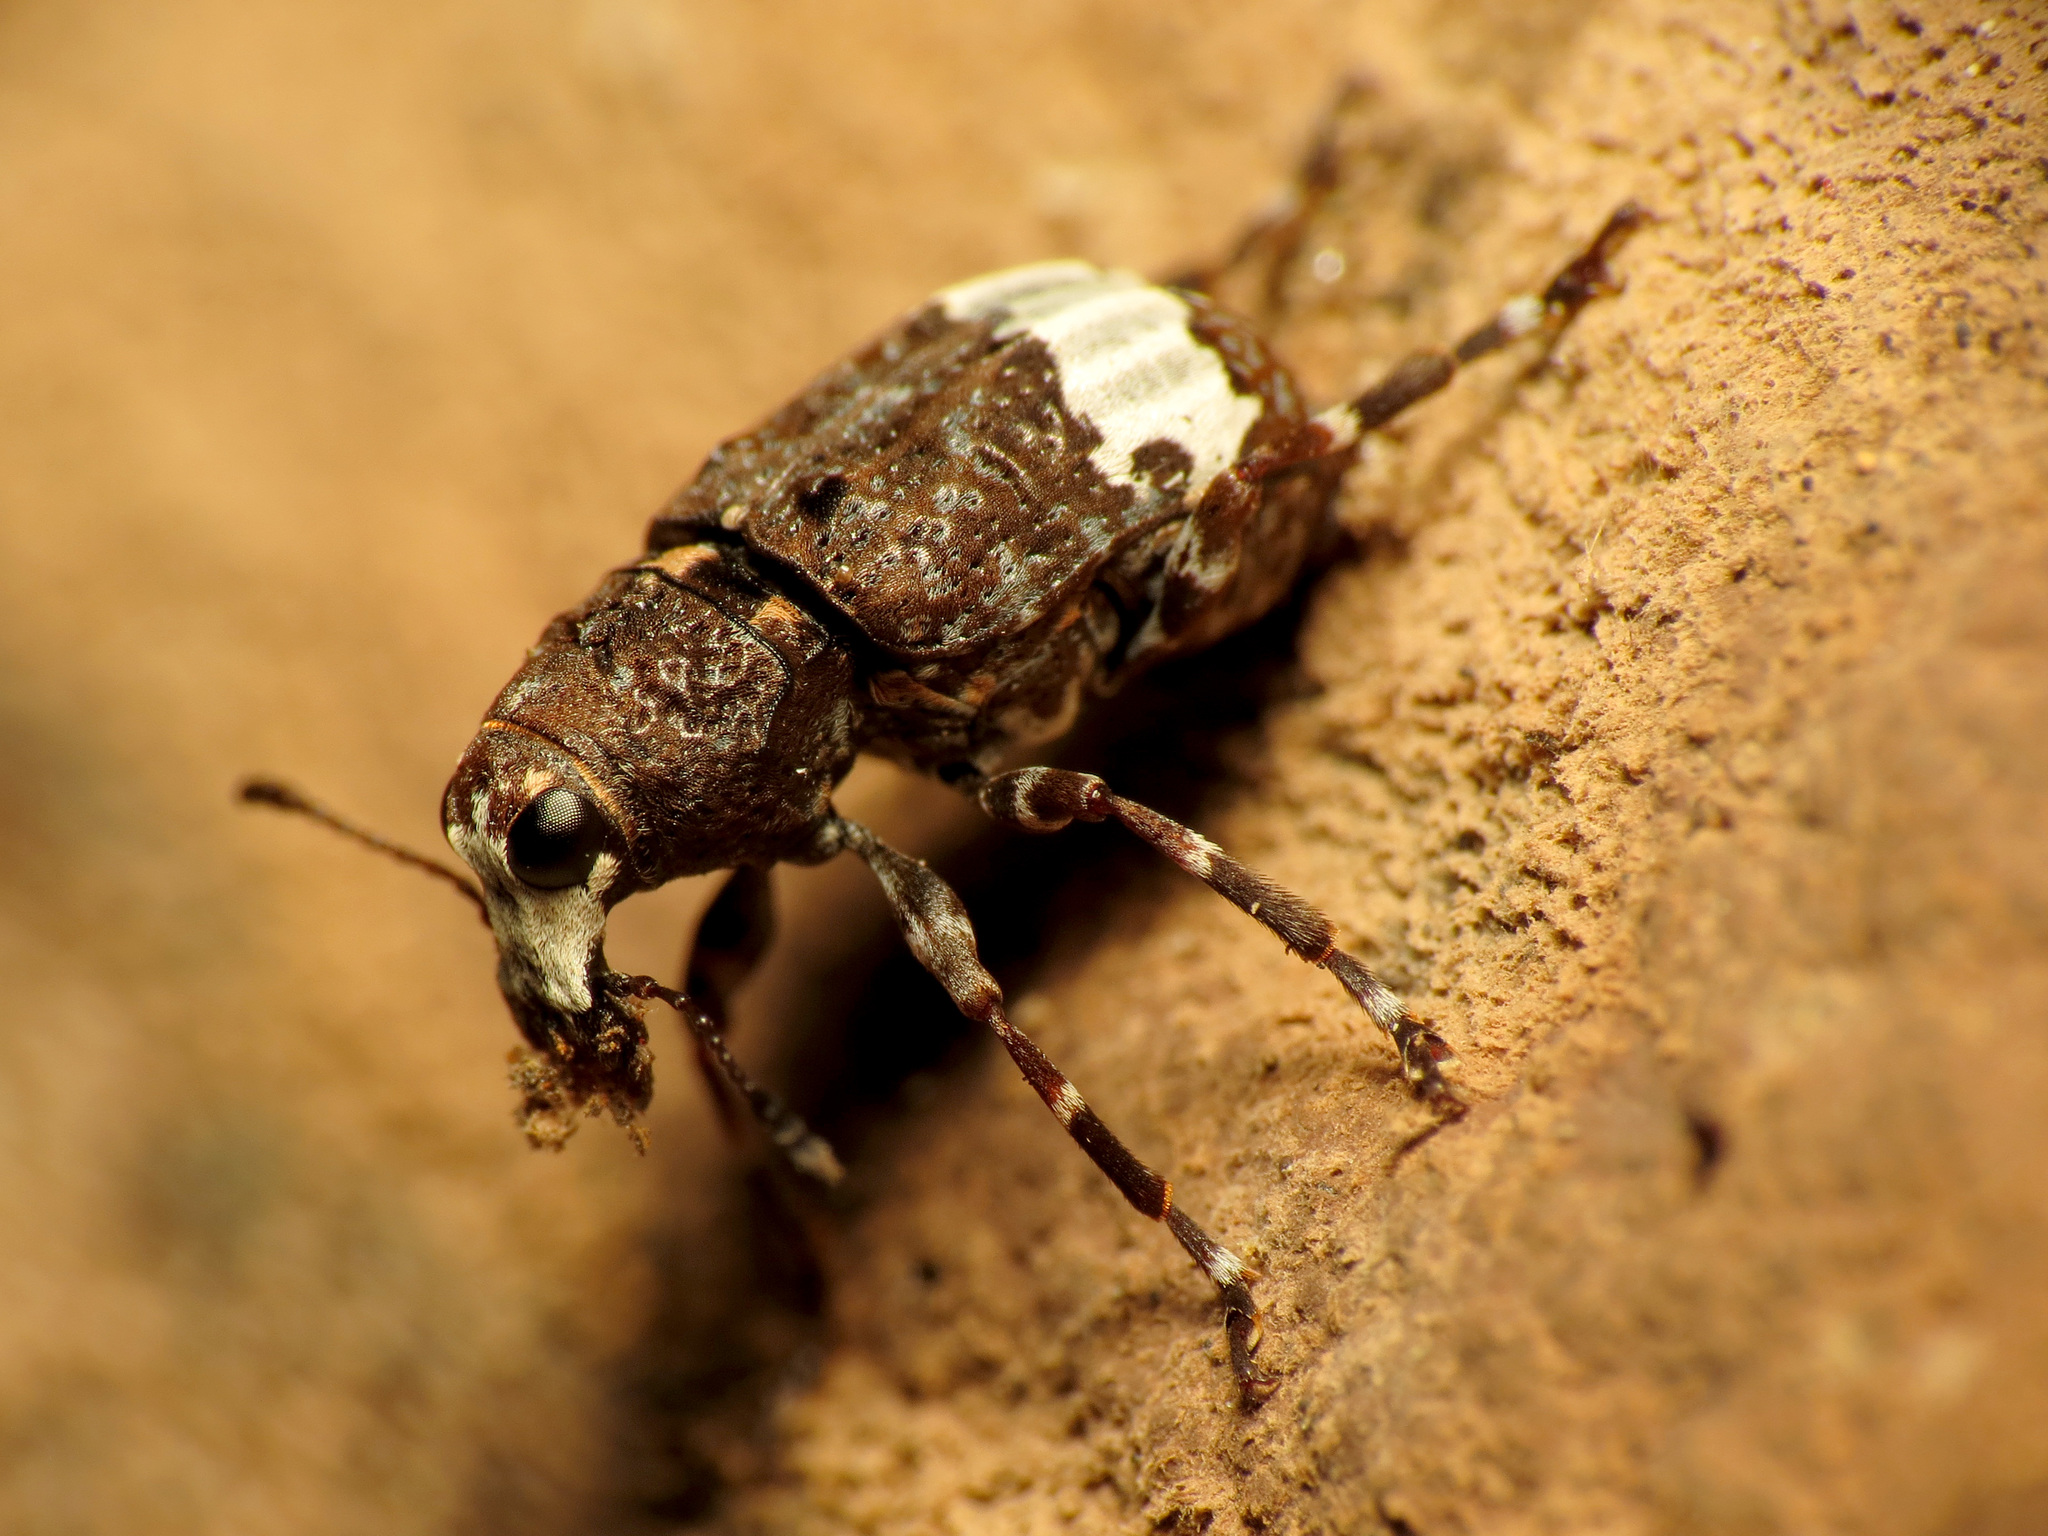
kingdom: Animalia
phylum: Arthropoda
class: Insecta
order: Coleoptera
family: Anthribidae
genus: Eurymycter
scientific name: Eurymycter fasciatus
